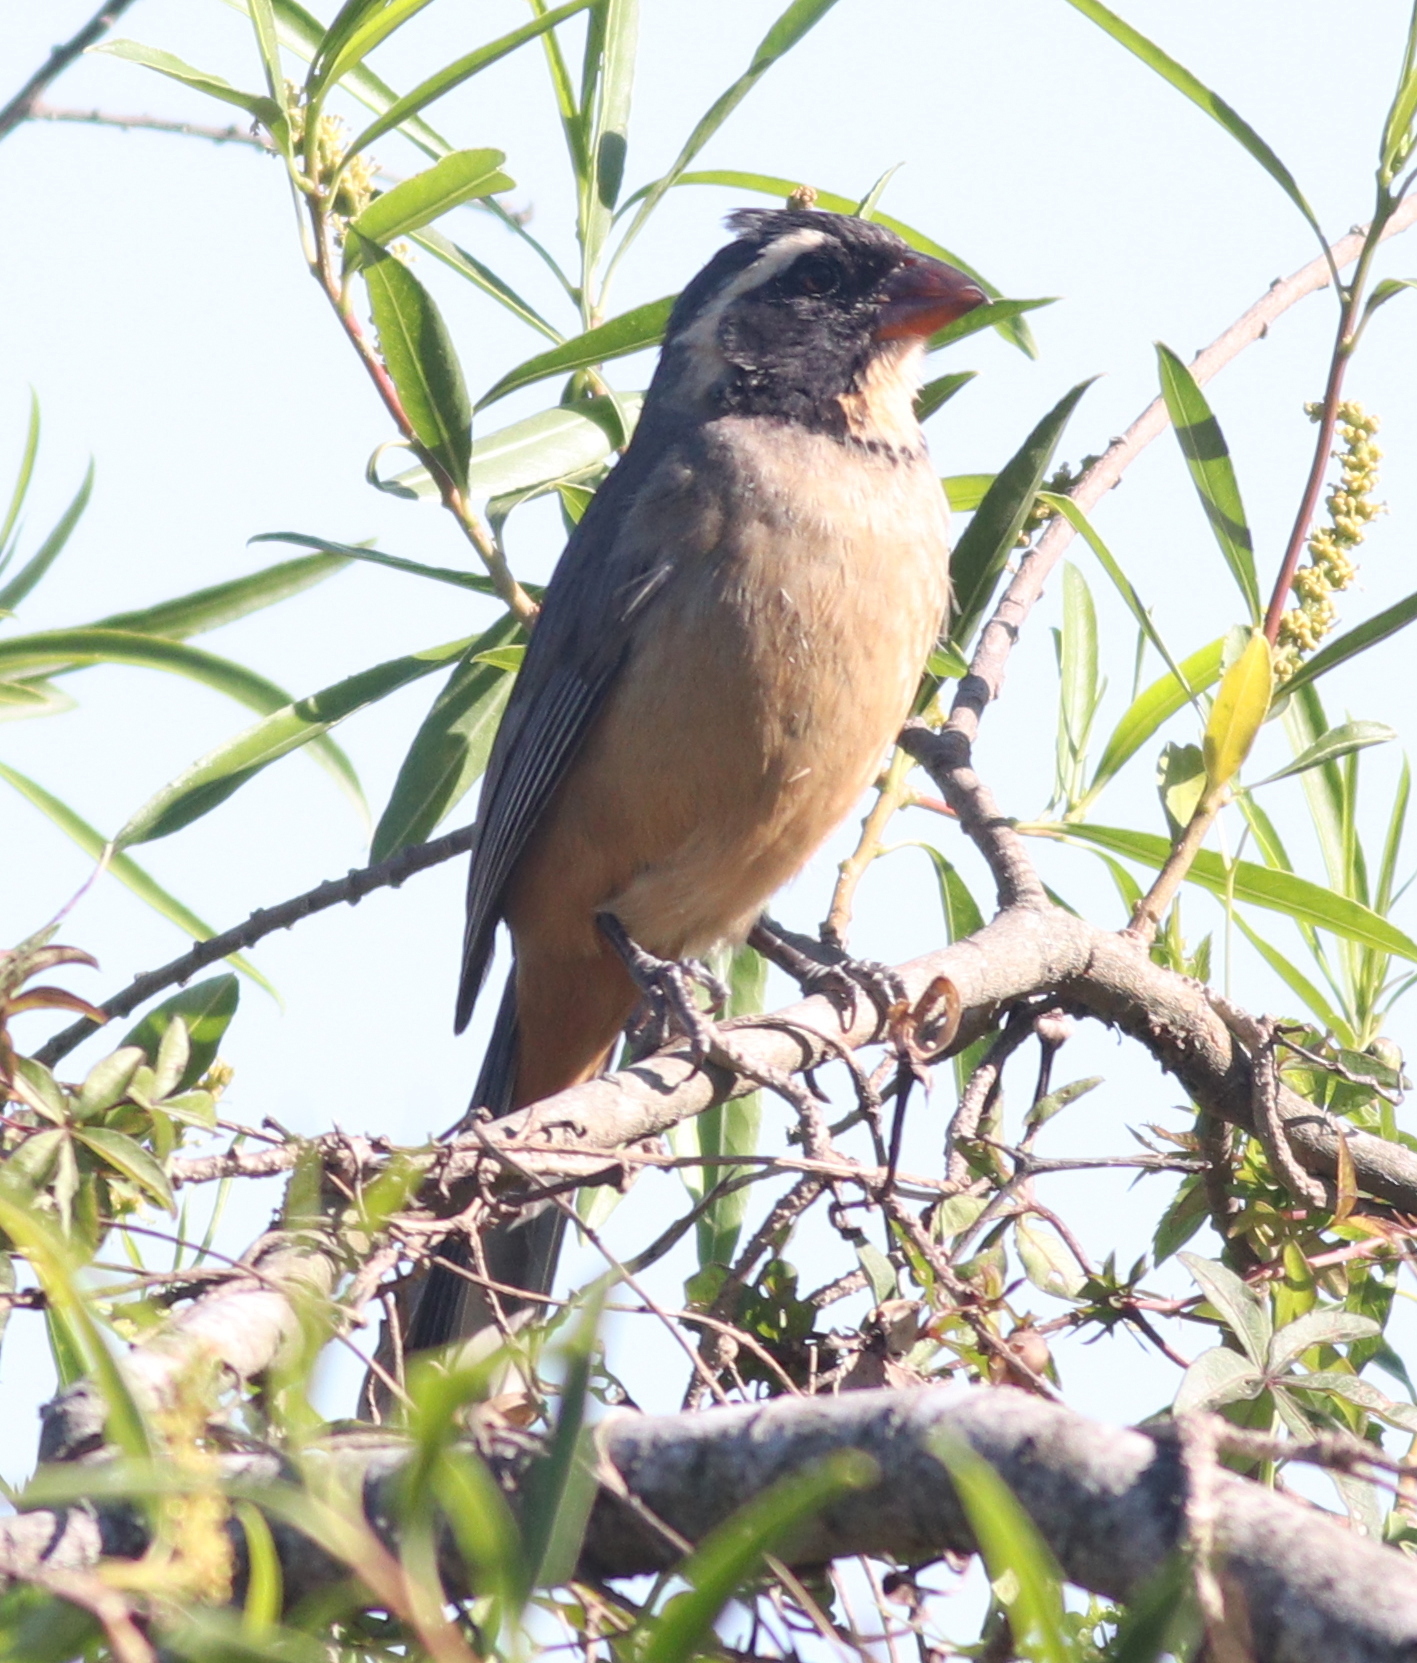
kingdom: Animalia
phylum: Chordata
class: Aves
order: Passeriformes
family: Thraupidae
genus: Saltator
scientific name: Saltator aurantiirostris
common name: Golden-billed saltator
